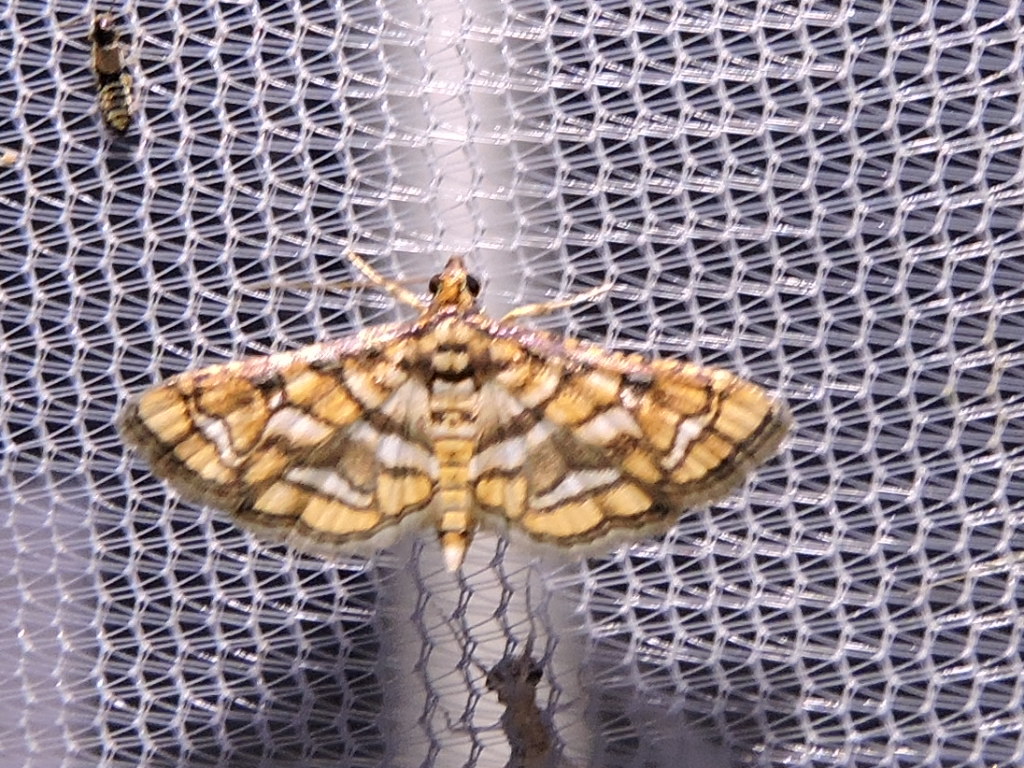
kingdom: Animalia
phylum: Arthropoda
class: Insecta
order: Lepidoptera
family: Crambidae
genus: Hileithia
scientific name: Hileithia magualis
